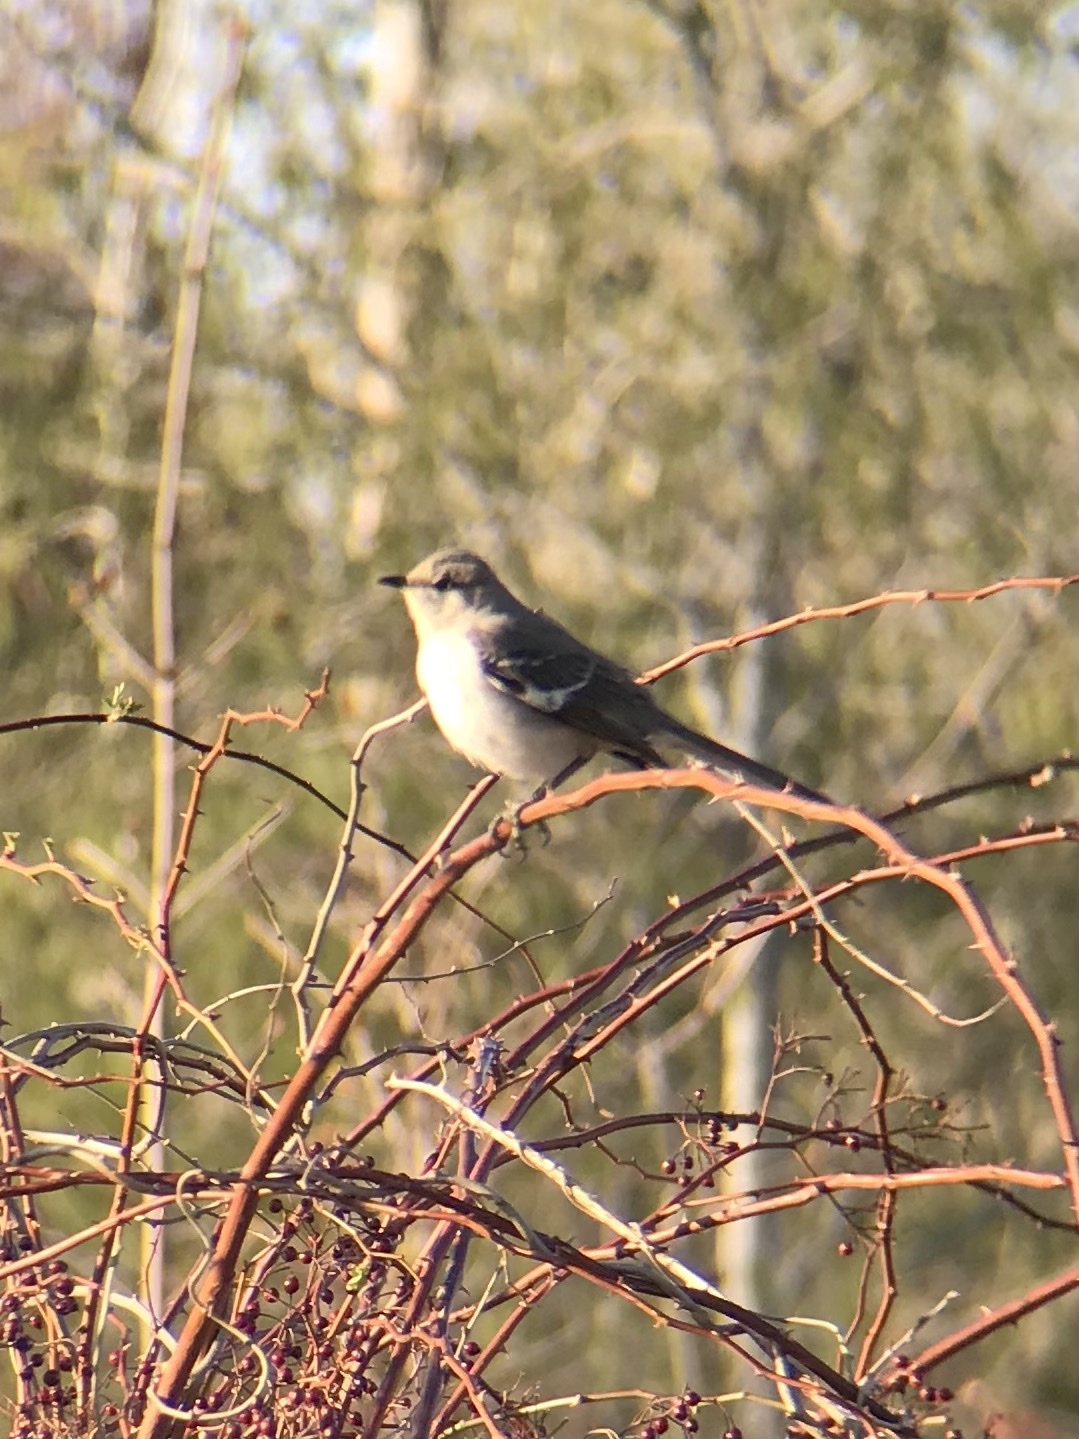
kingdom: Animalia
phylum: Chordata
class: Aves
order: Passeriformes
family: Mimidae
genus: Mimus
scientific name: Mimus polyglottos
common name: Northern mockingbird
